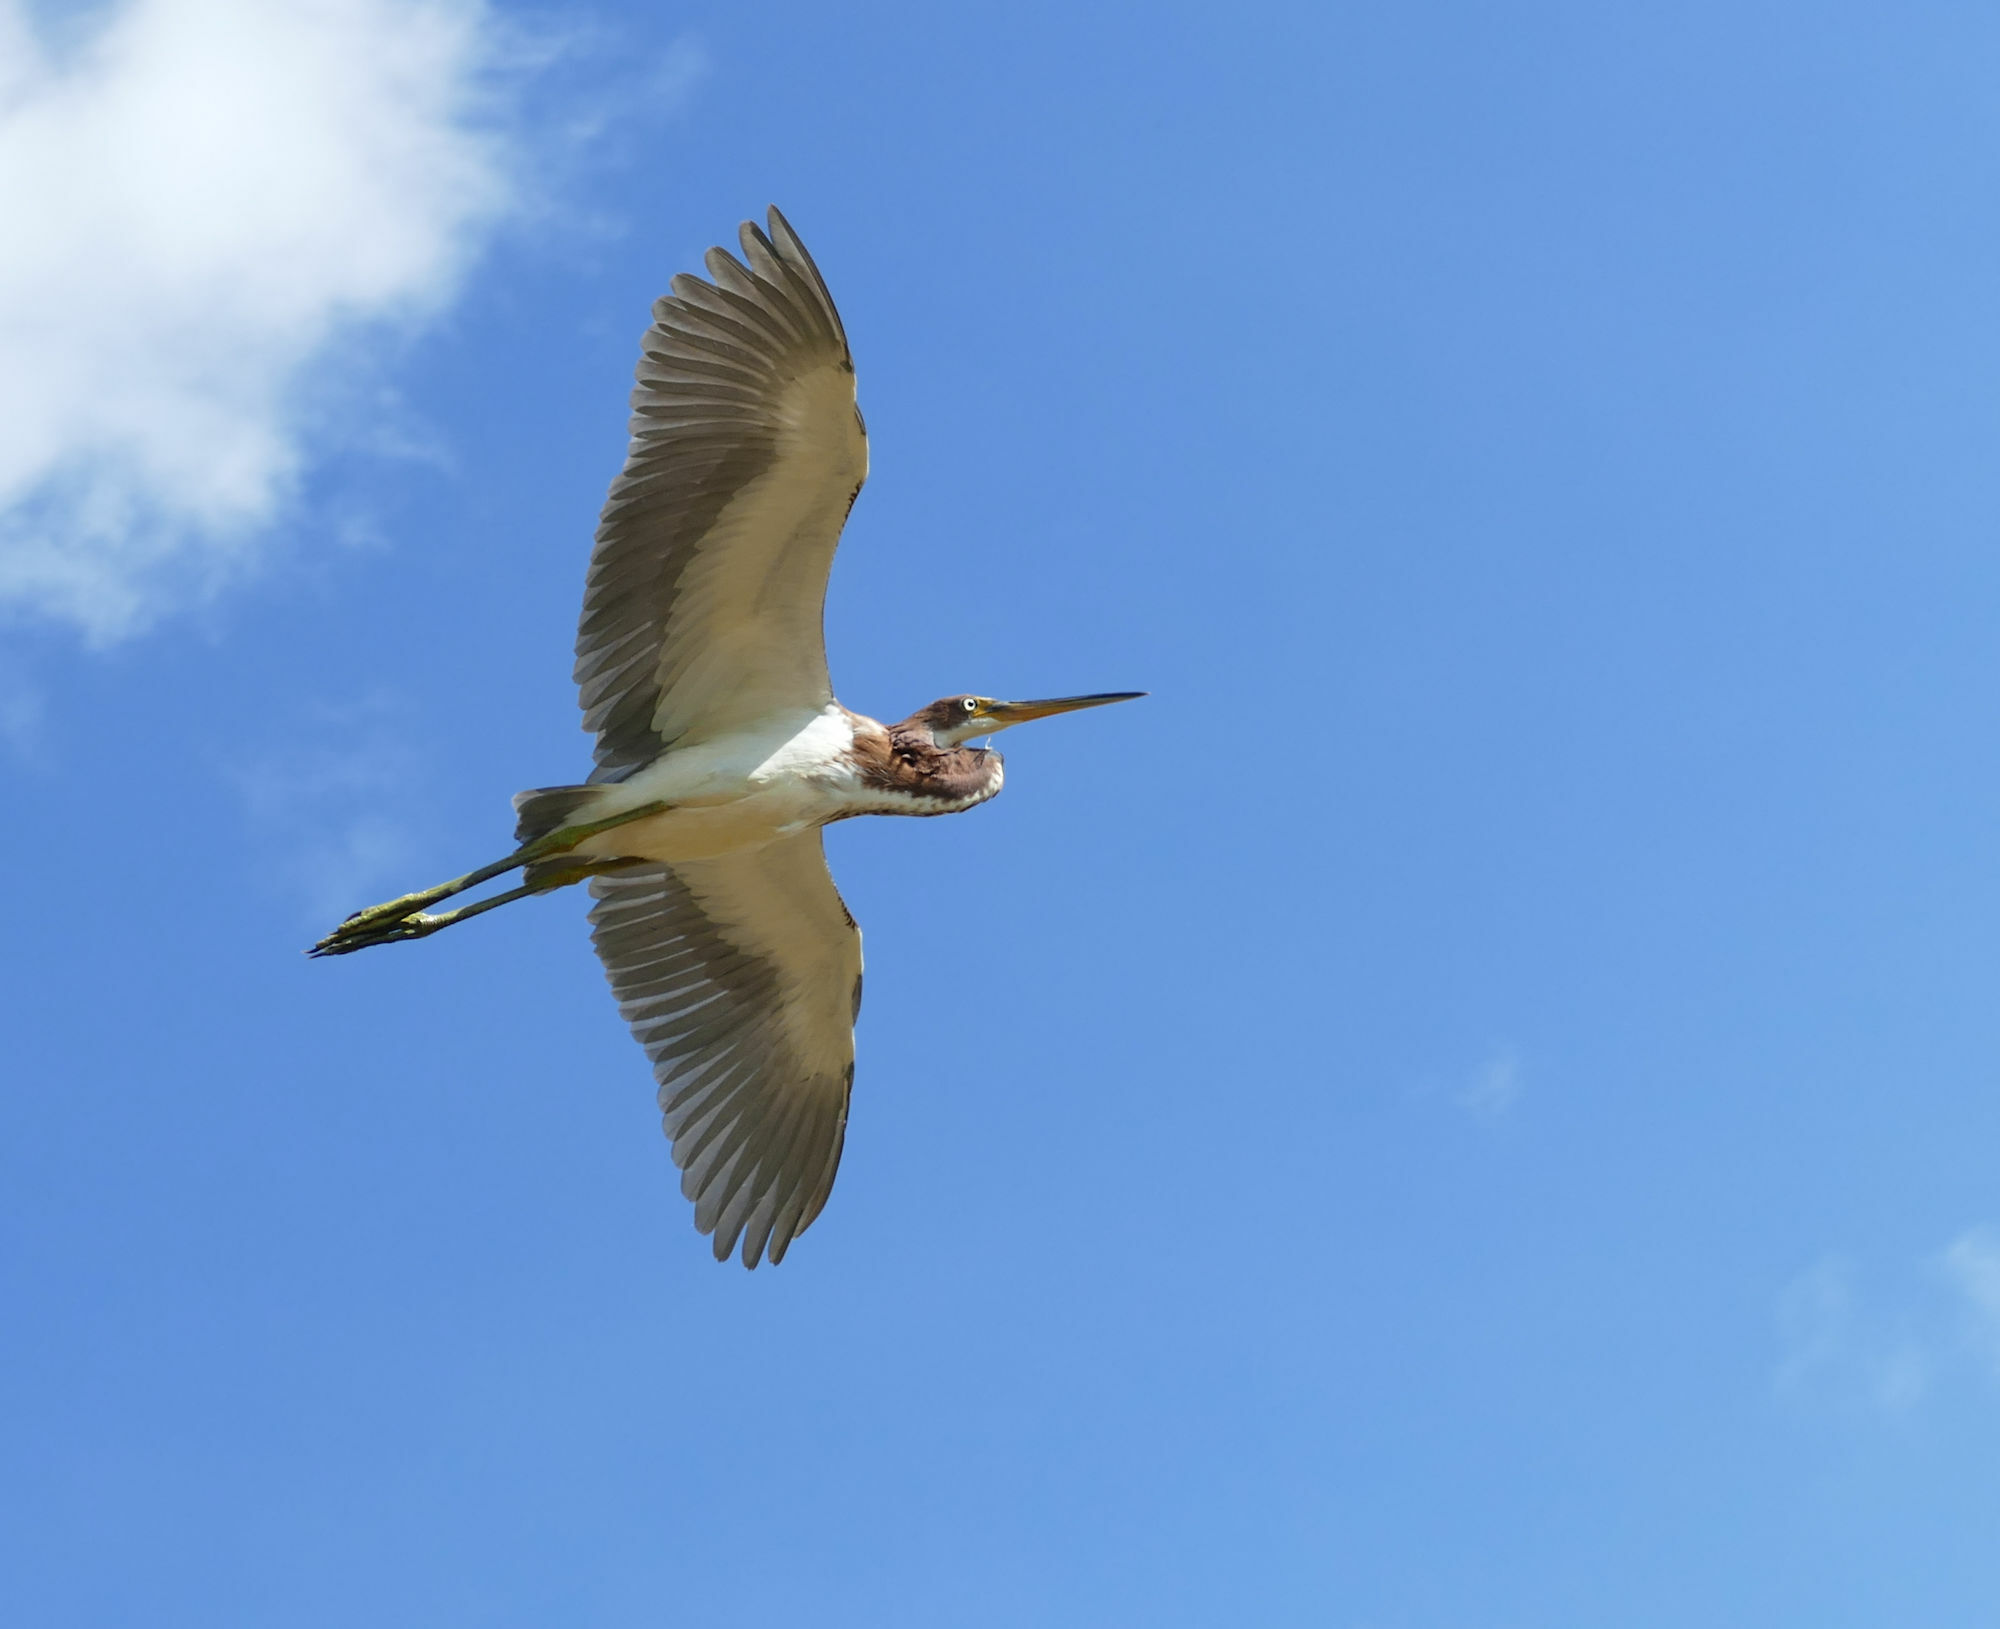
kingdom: Animalia
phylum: Chordata
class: Aves
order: Pelecaniformes
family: Ardeidae
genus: Egretta
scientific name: Egretta tricolor
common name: Tricolored heron
